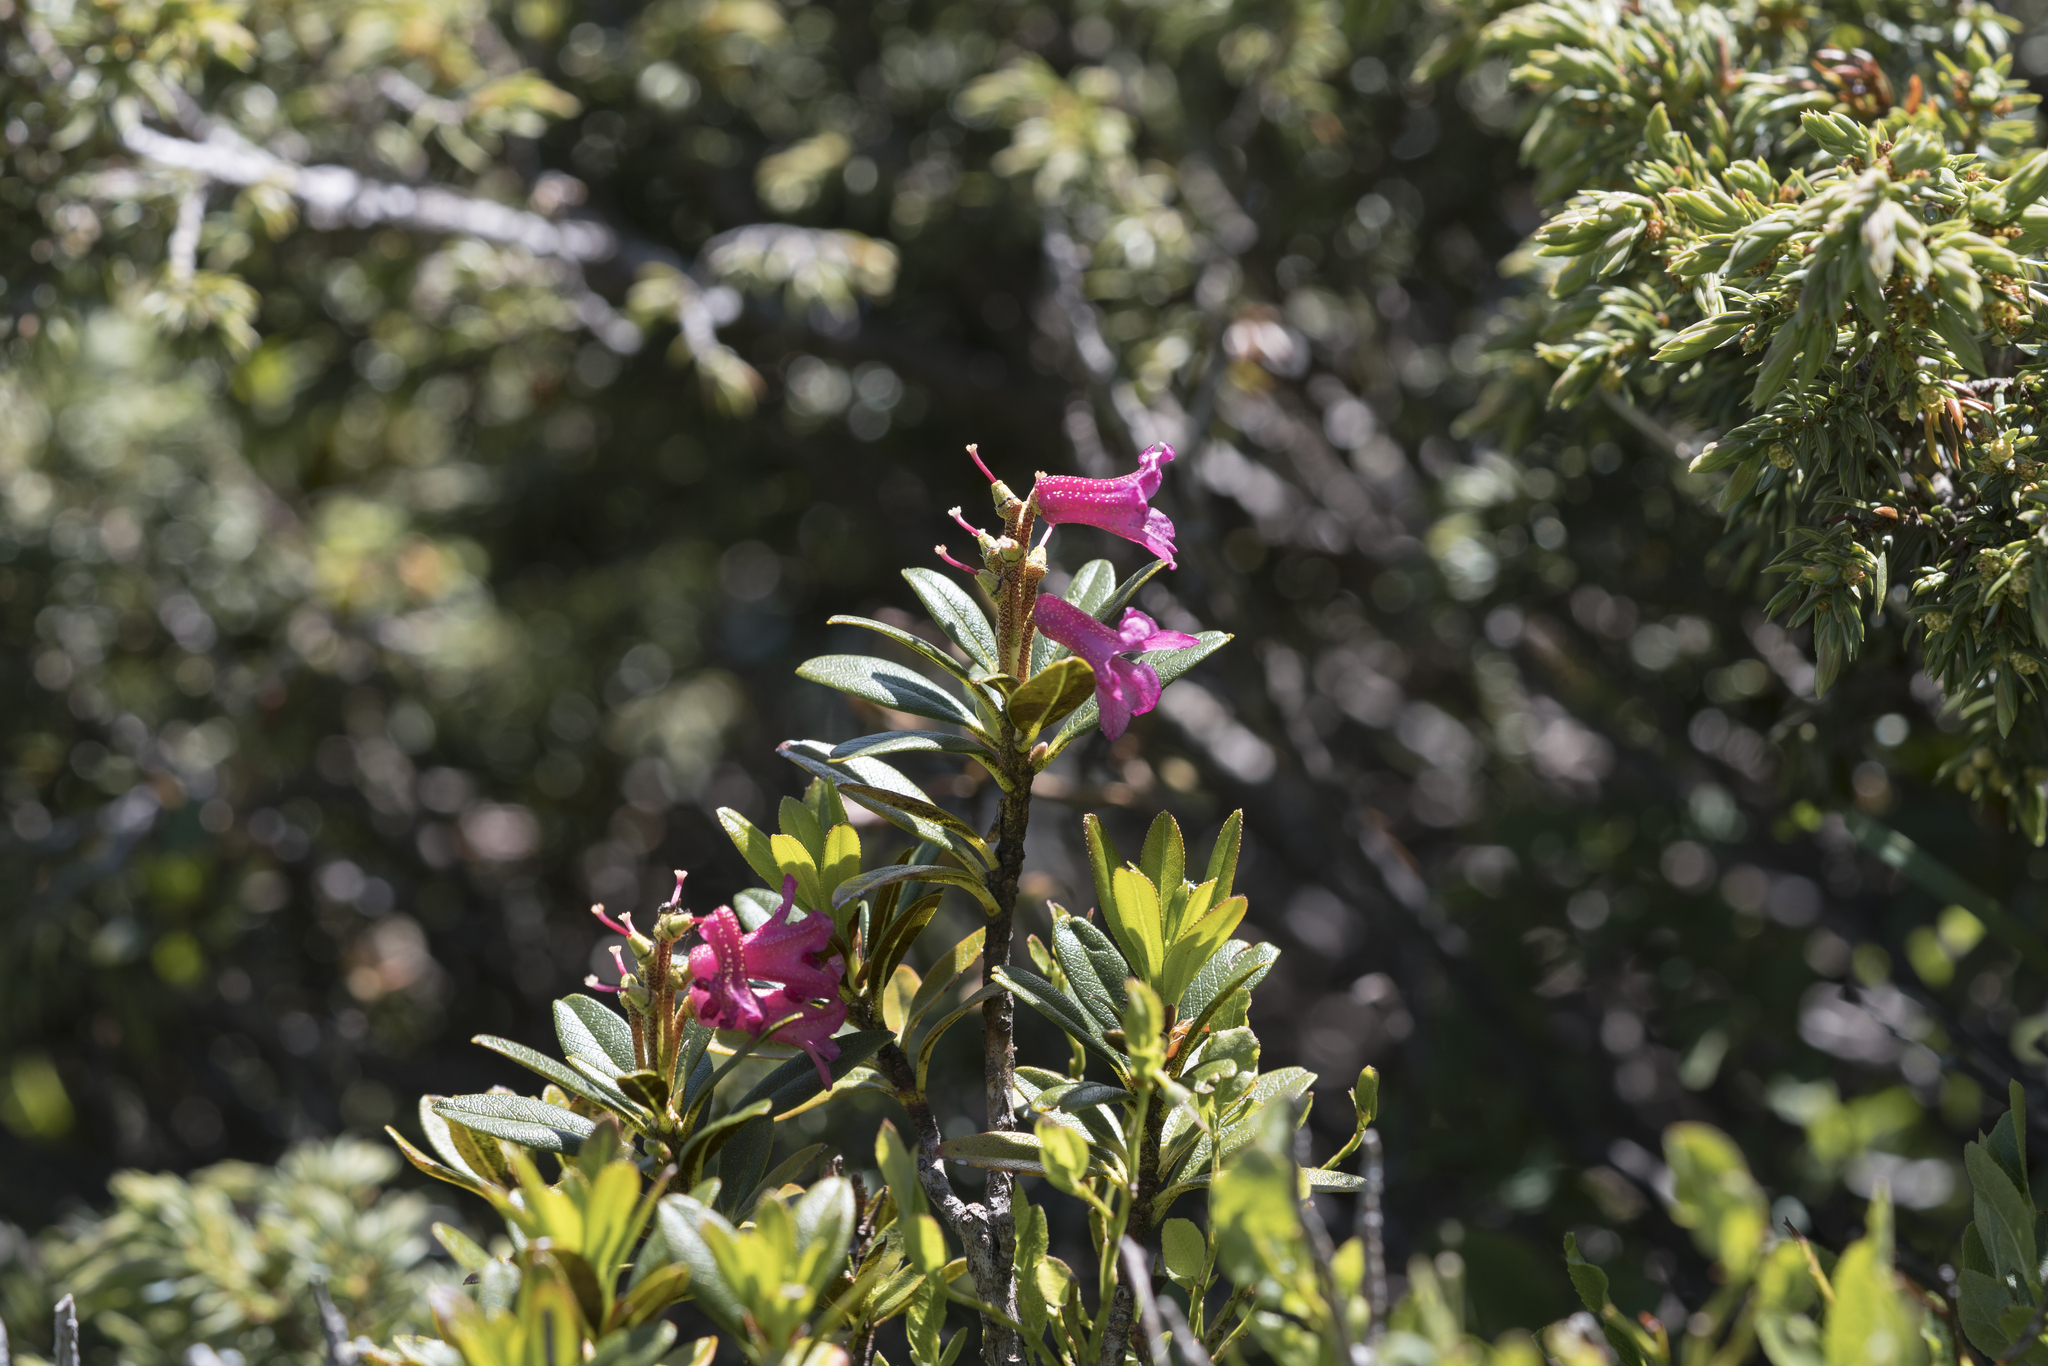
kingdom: Plantae
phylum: Tracheophyta
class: Magnoliopsida
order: Ericales
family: Ericaceae
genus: Rhododendron
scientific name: Rhododendron ferrugineum
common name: Alpenrose
